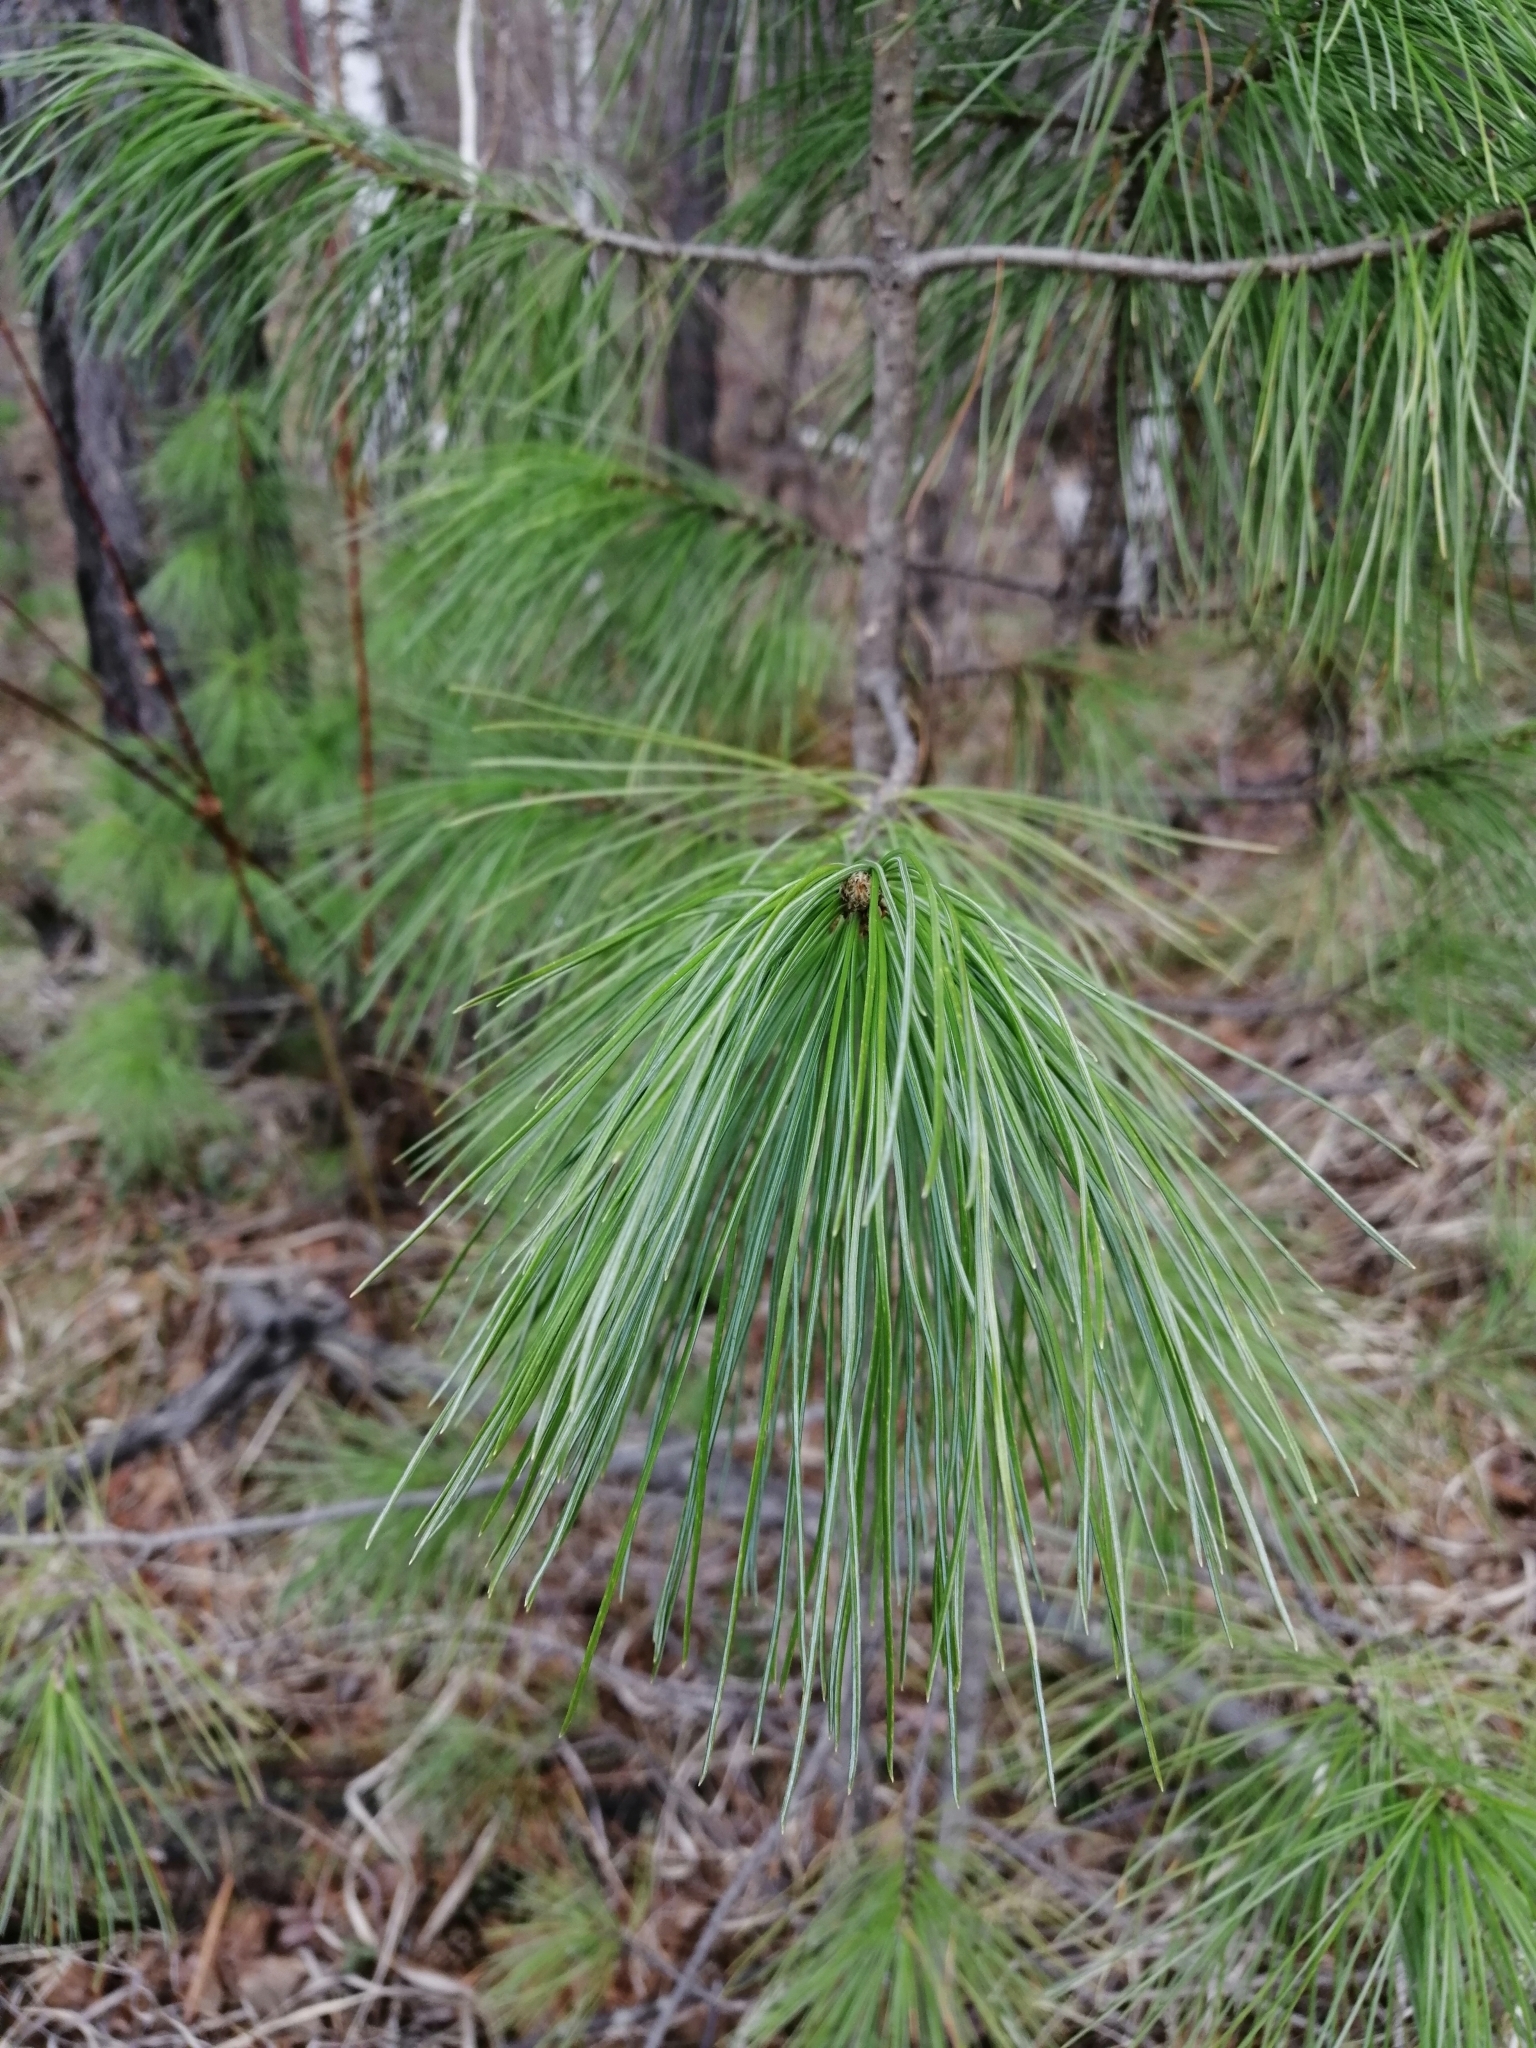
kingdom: Plantae
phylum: Tracheophyta
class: Pinopsida
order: Pinales
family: Pinaceae
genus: Pinus
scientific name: Pinus sibirica
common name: Siberian pine
